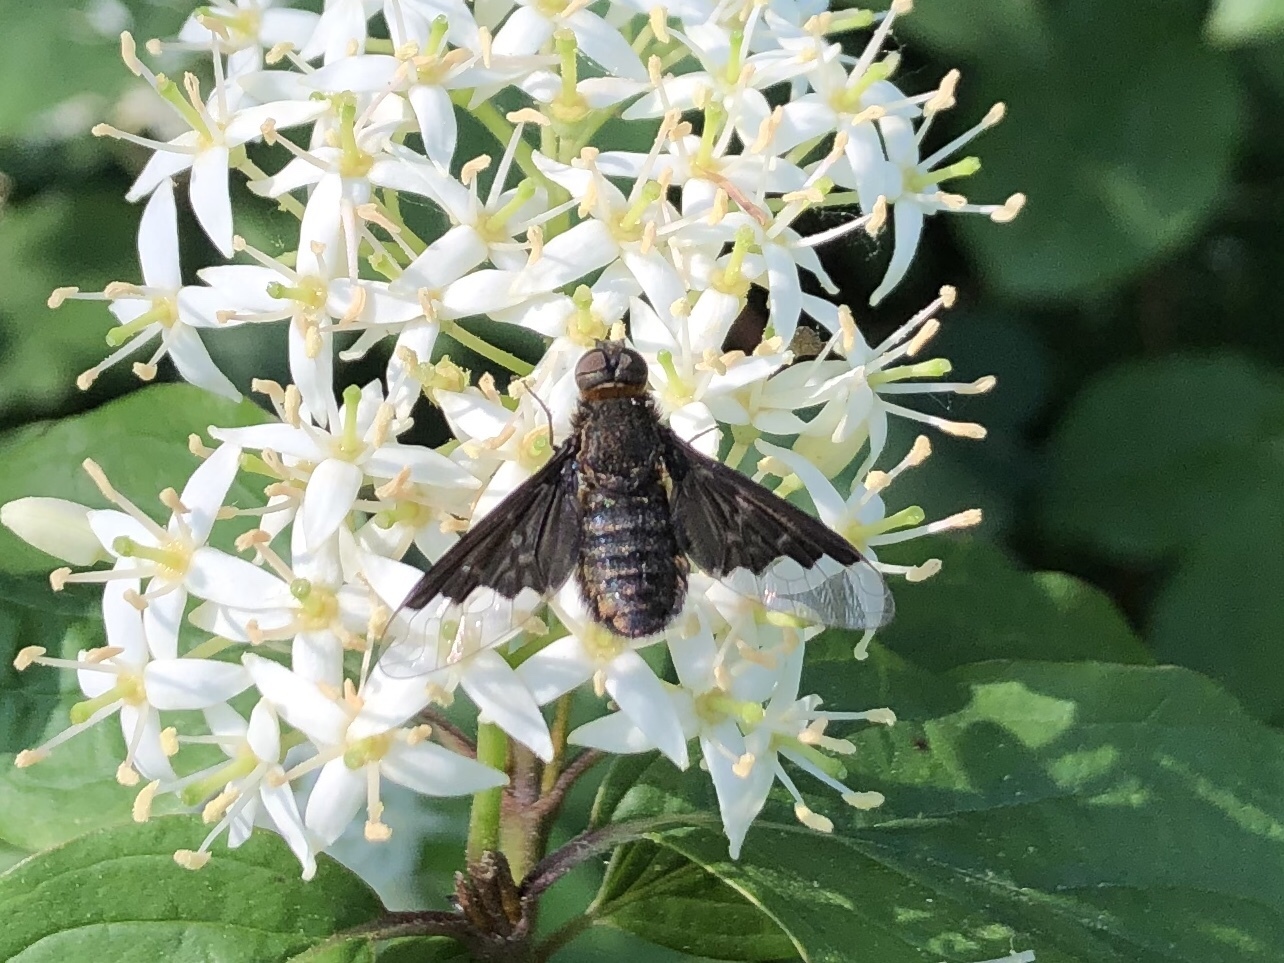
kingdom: Animalia
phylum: Arthropoda
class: Insecta
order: Diptera
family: Bombyliidae
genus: Hemipenthes
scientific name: Hemipenthes morio
